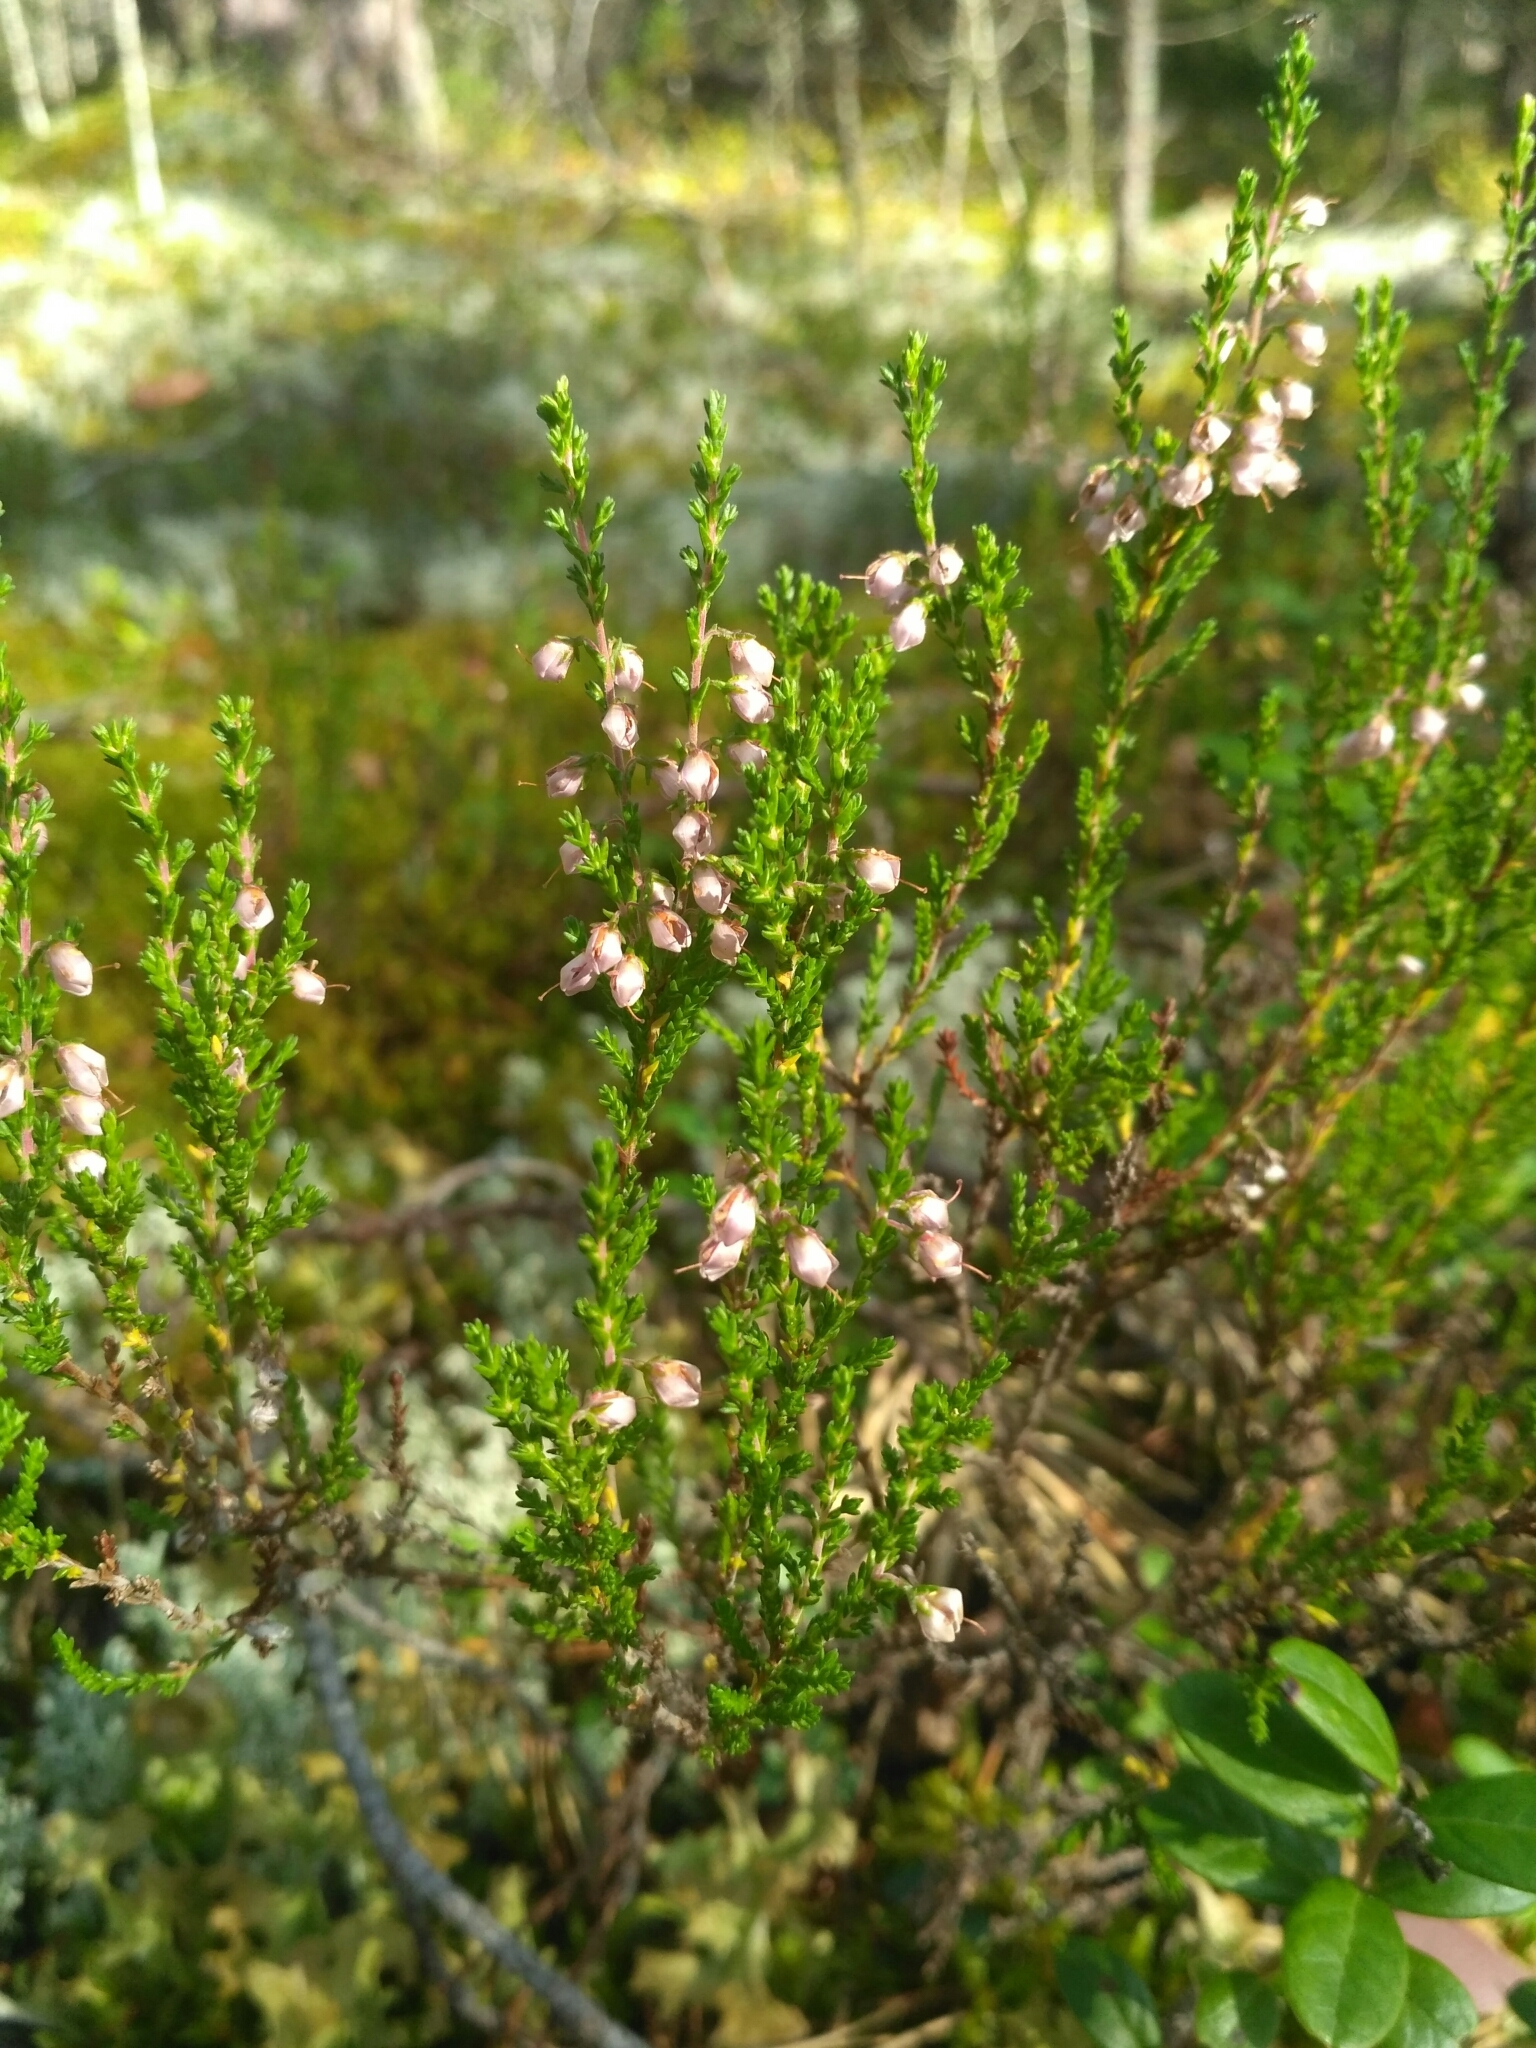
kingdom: Plantae
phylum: Tracheophyta
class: Magnoliopsida
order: Ericales
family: Ericaceae
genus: Calluna
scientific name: Calluna vulgaris
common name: Heather
